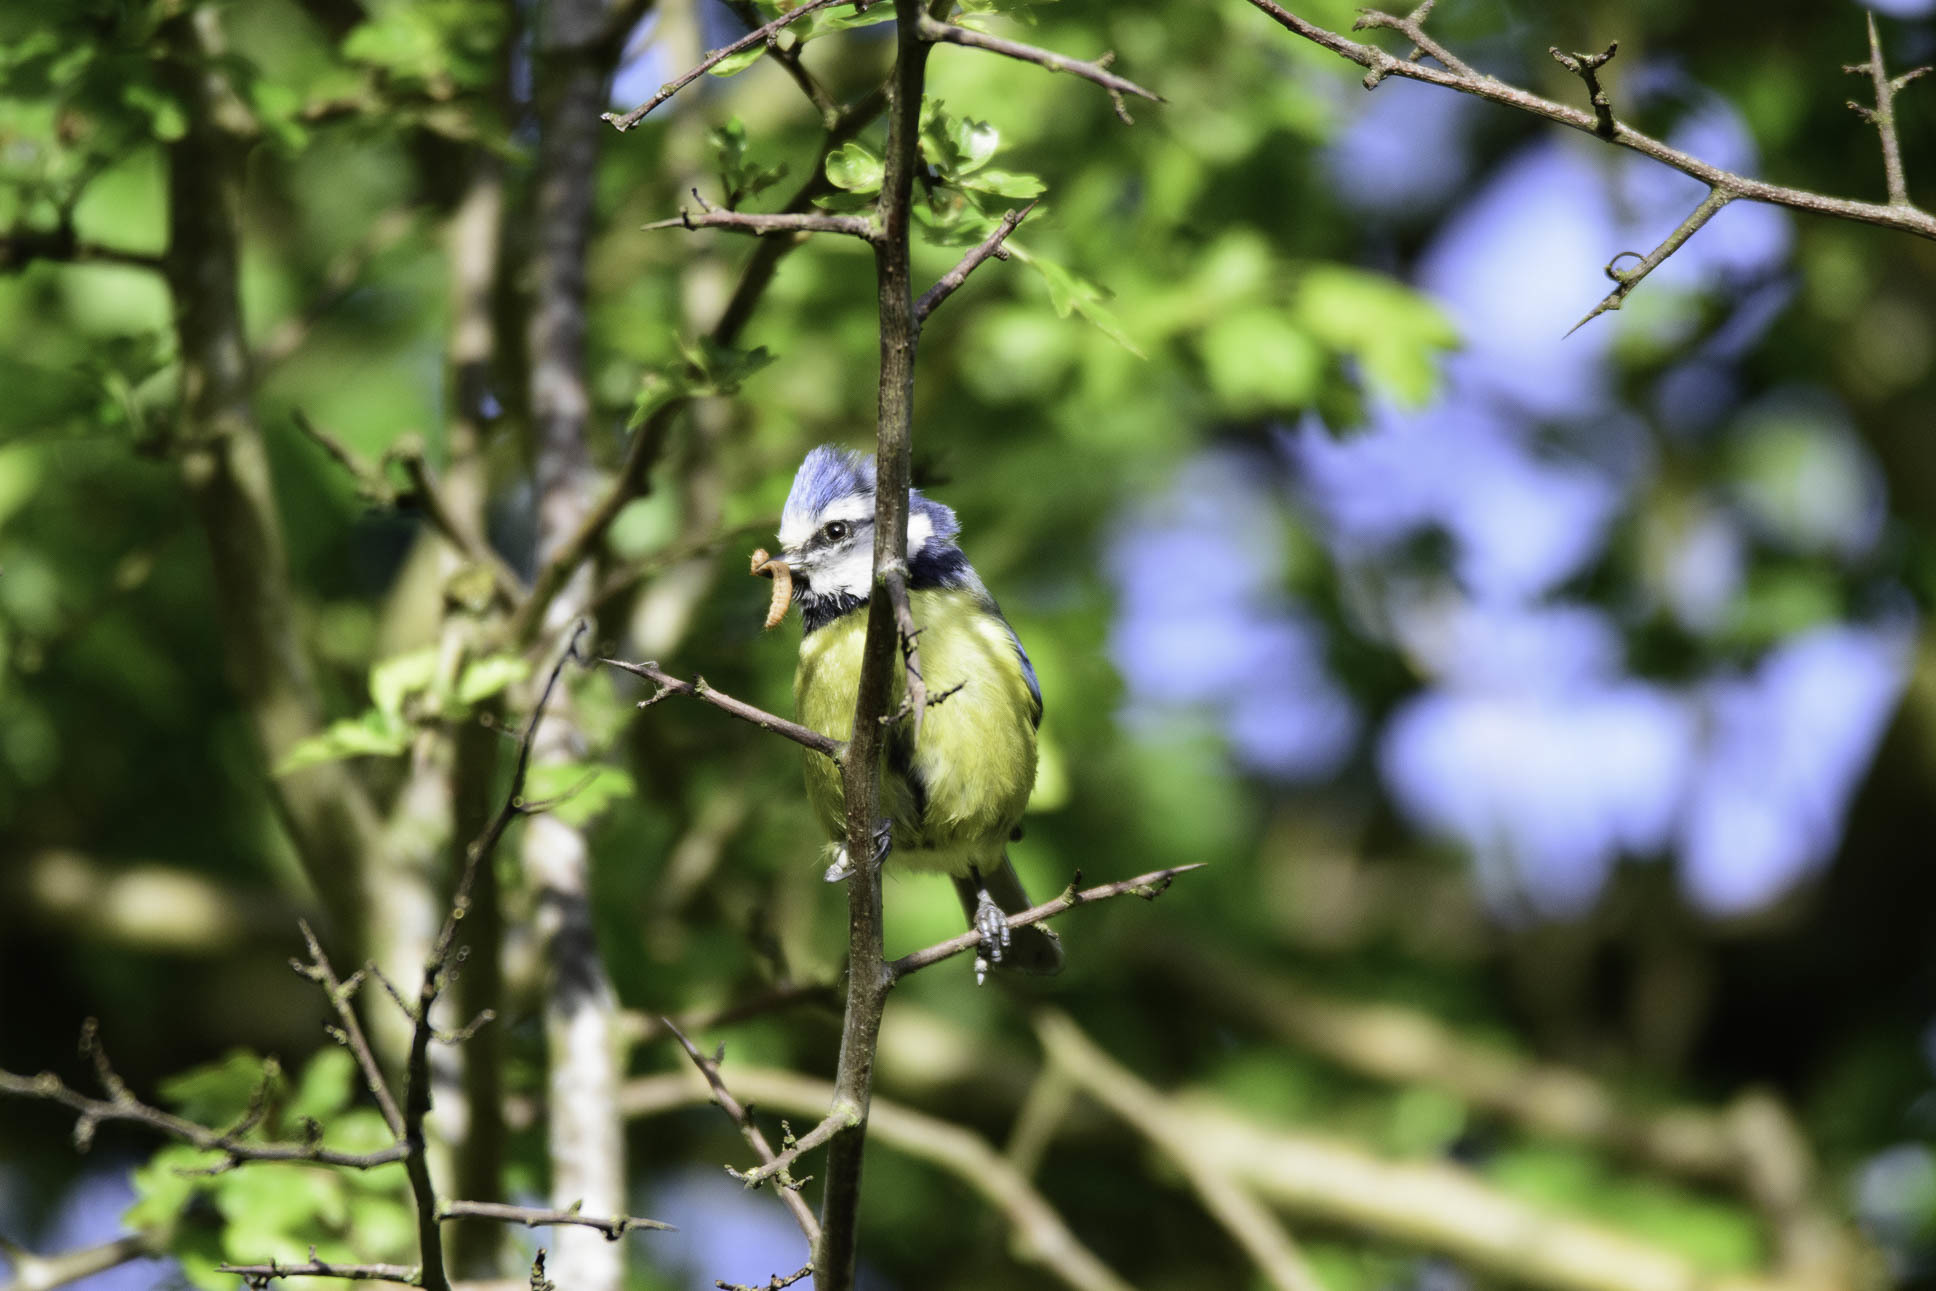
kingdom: Animalia
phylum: Chordata
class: Aves
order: Passeriformes
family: Paridae
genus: Cyanistes
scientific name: Cyanistes caeruleus
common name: Eurasian blue tit
